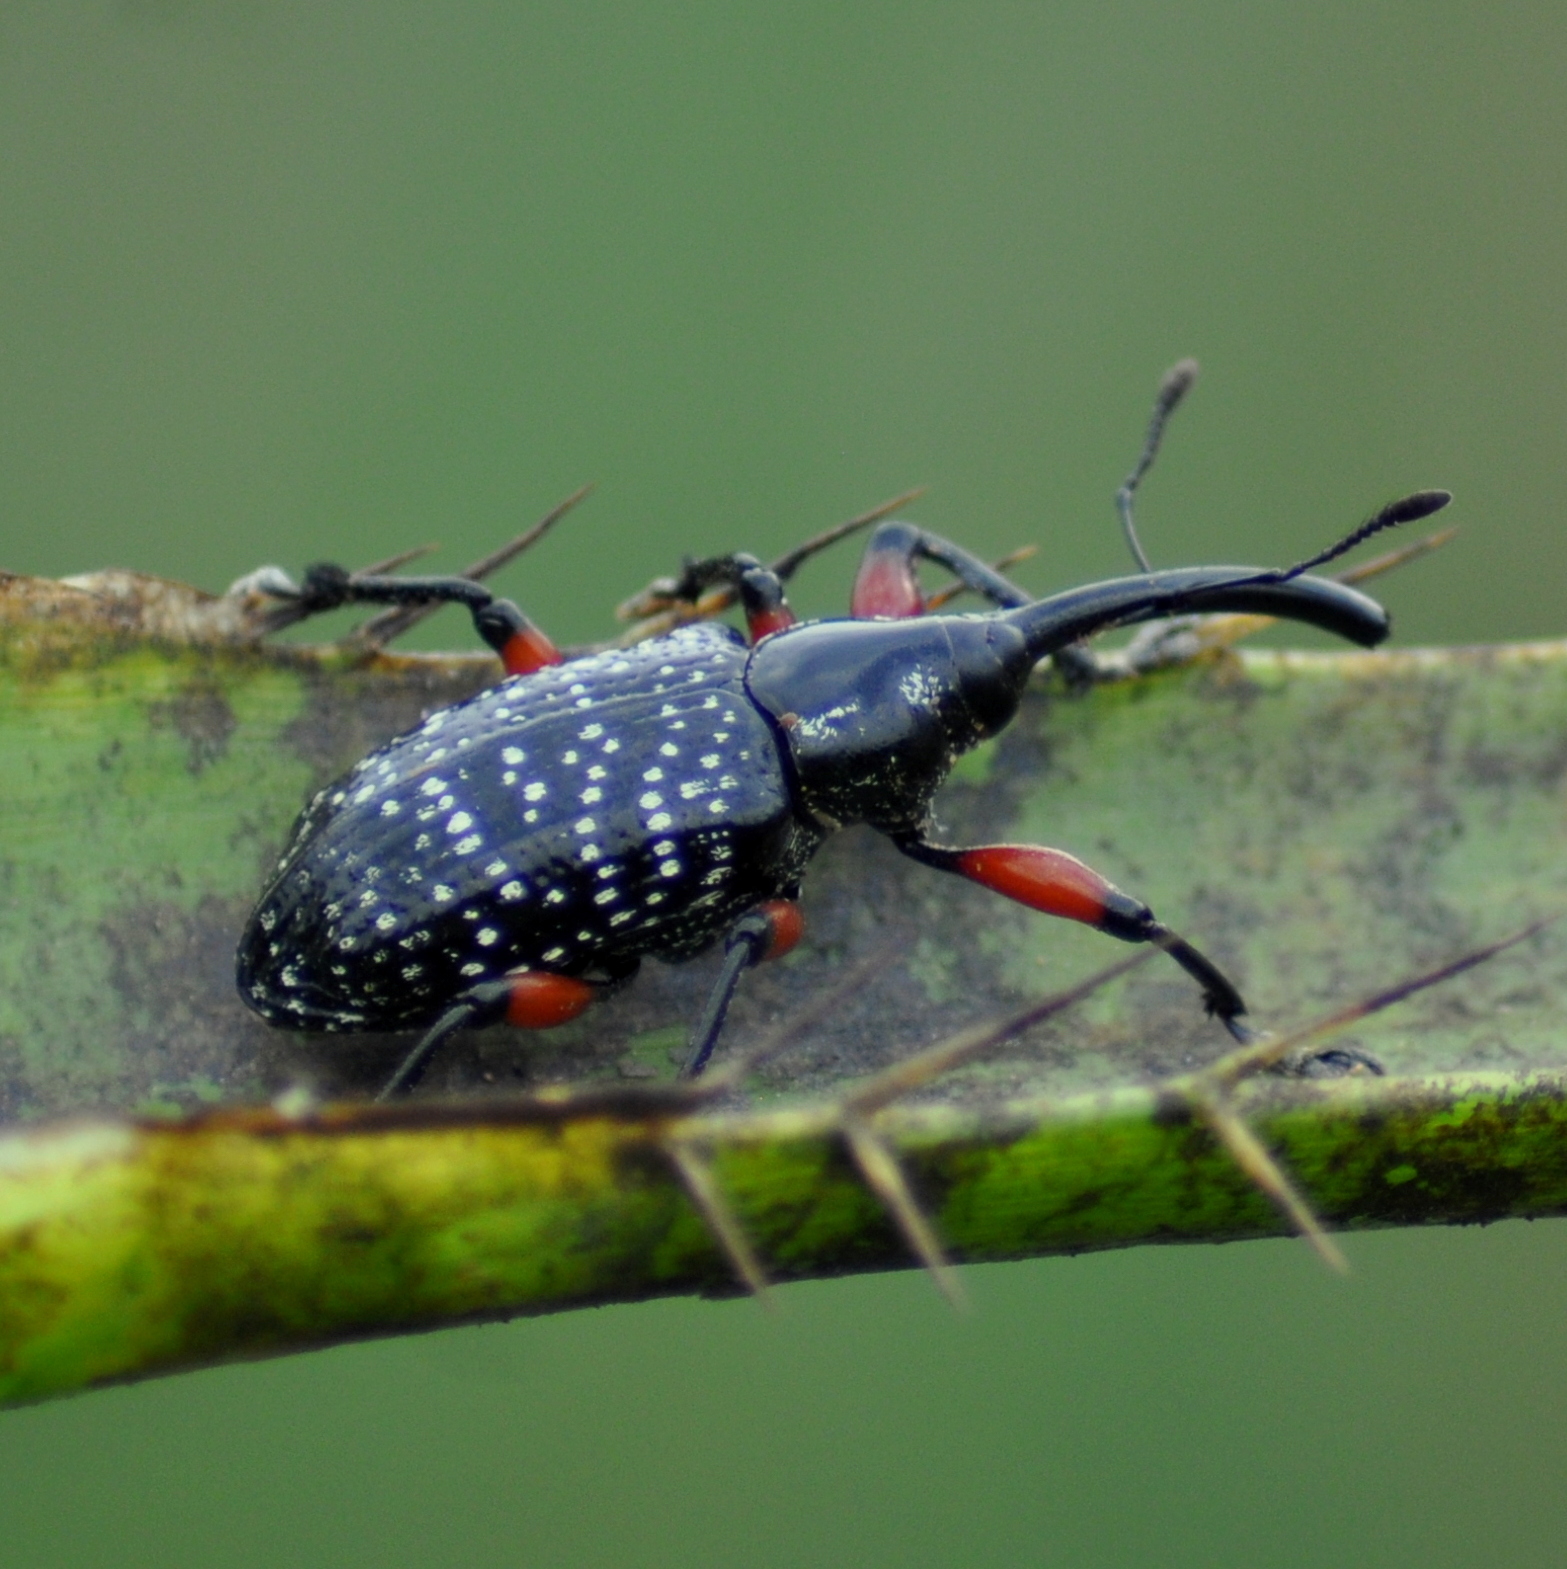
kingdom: Animalia
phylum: Arthropoda
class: Insecta
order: Coleoptera
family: Curculionidae
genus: Heilipodus
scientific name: Heilipodus erythropus
